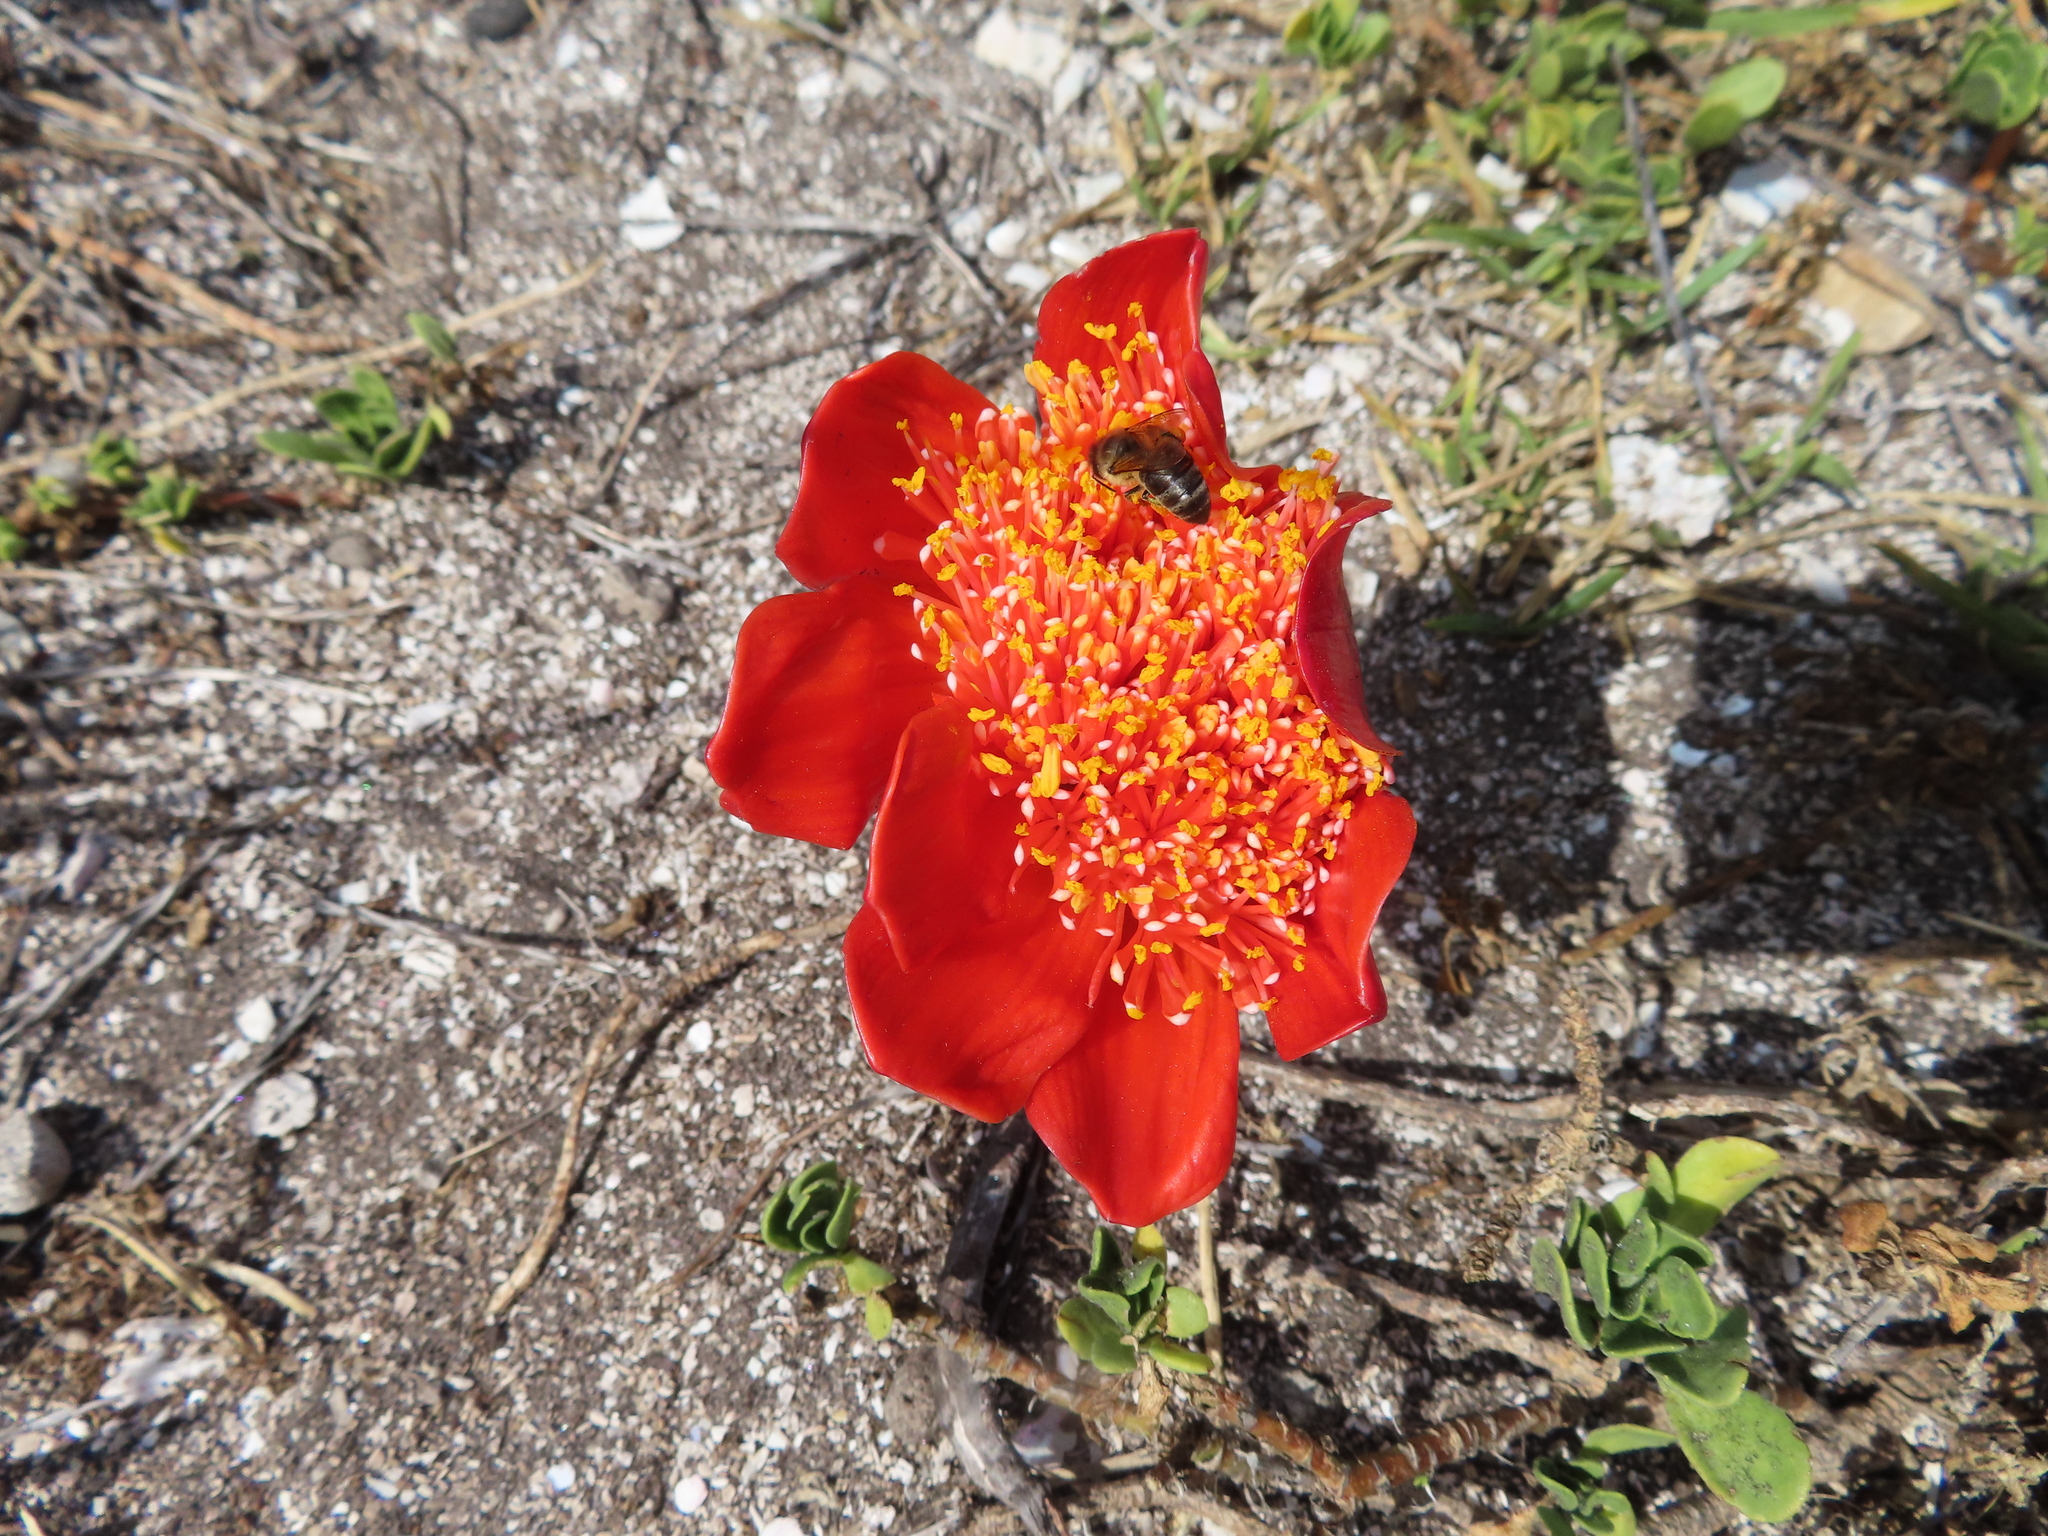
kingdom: Plantae
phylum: Tracheophyta
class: Liliopsida
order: Asparagales
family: Amaryllidaceae
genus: Haemanthus
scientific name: Haemanthus coccineus
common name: Cape-tulip
